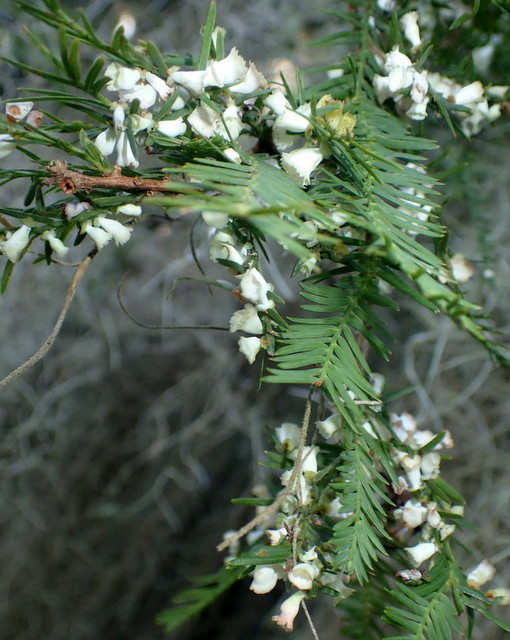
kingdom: Animalia
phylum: Arthropoda
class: Insecta
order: Diptera
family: Cecidomyiidae
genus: Taxodiomyia
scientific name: Taxodiomyia cupressi
